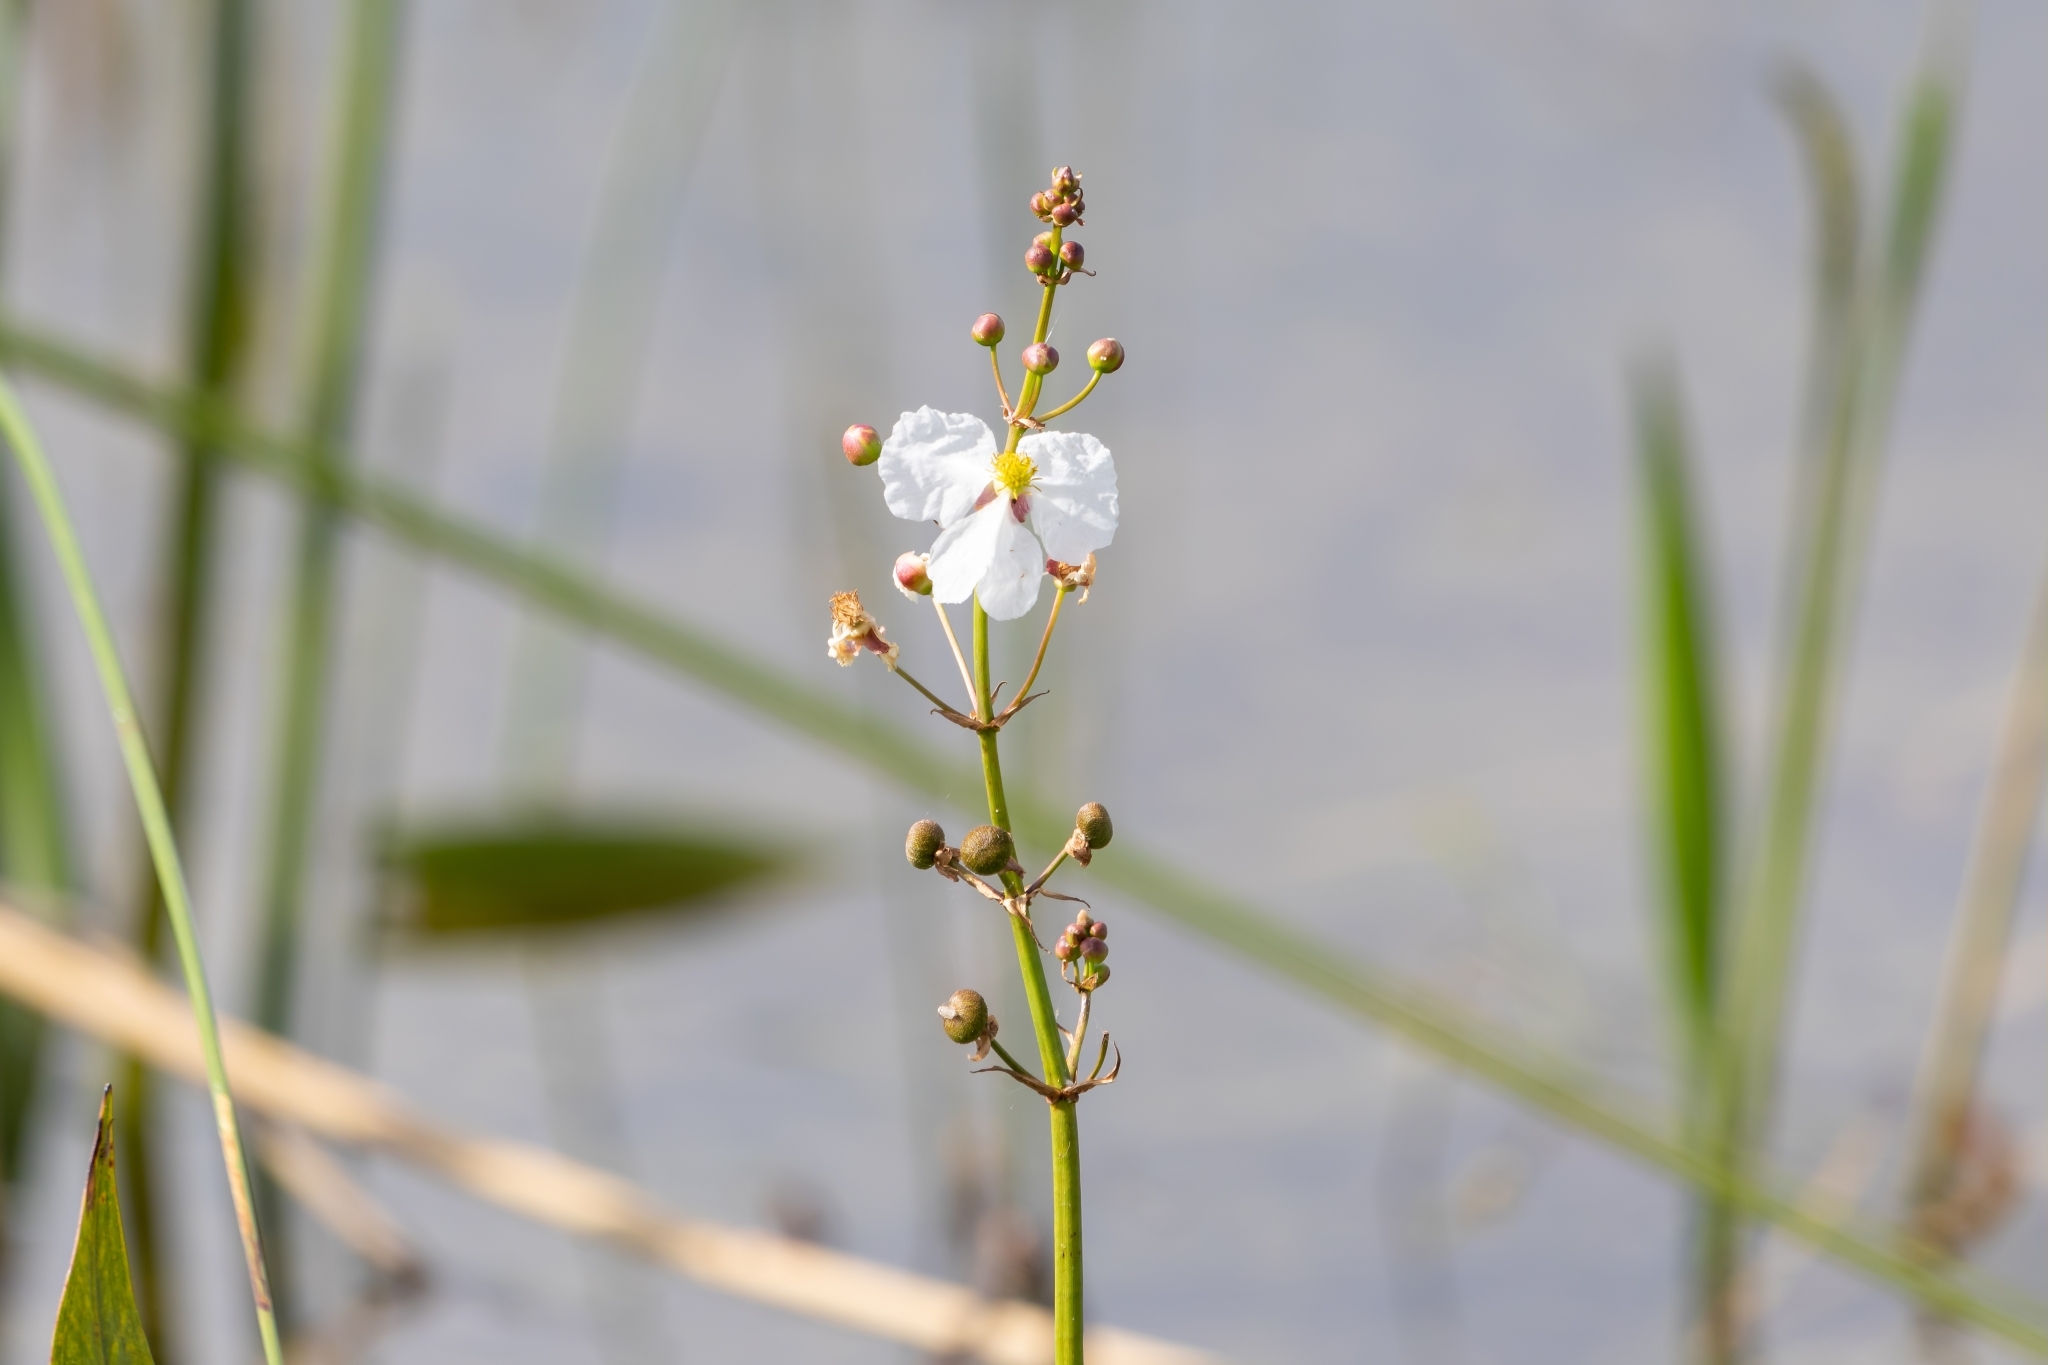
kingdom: Plantae
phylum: Tracheophyta
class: Liliopsida
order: Alismatales
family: Alismataceae
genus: Sagittaria
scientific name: Sagittaria lancifolia
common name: Lance-leaf arrowhead
